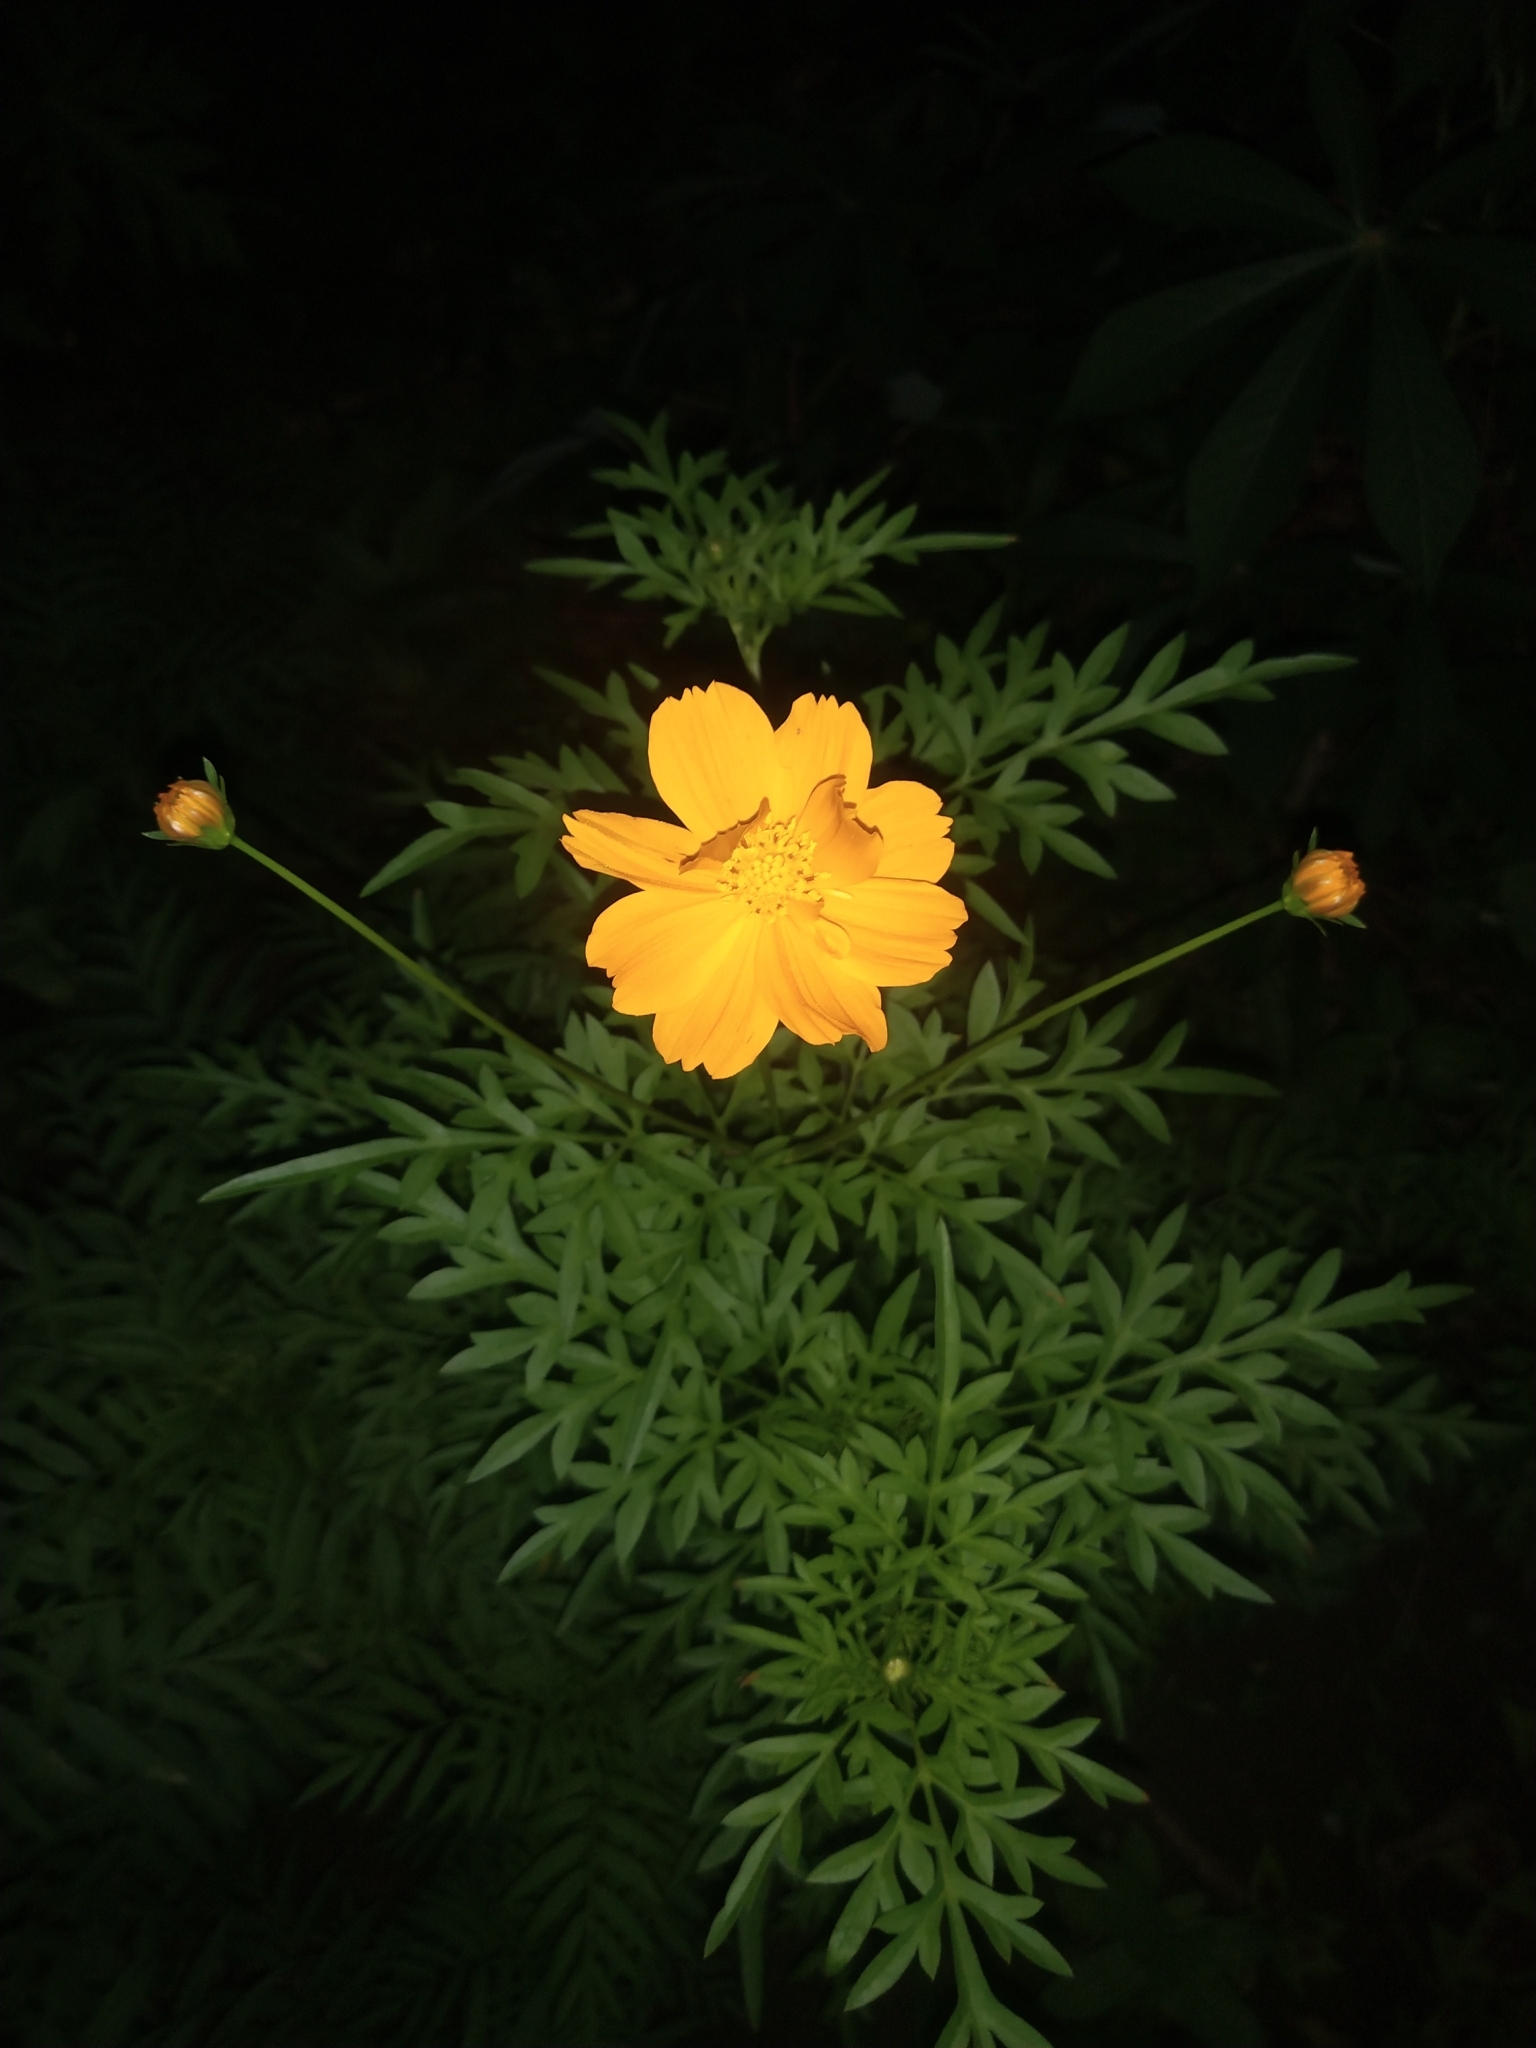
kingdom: Plantae
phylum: Tracheophyta
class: Magnoliopsida
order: Asterales
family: Asteraceae
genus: Cosmos
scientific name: Cosmos sulphureus
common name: Sulphur cosmos
